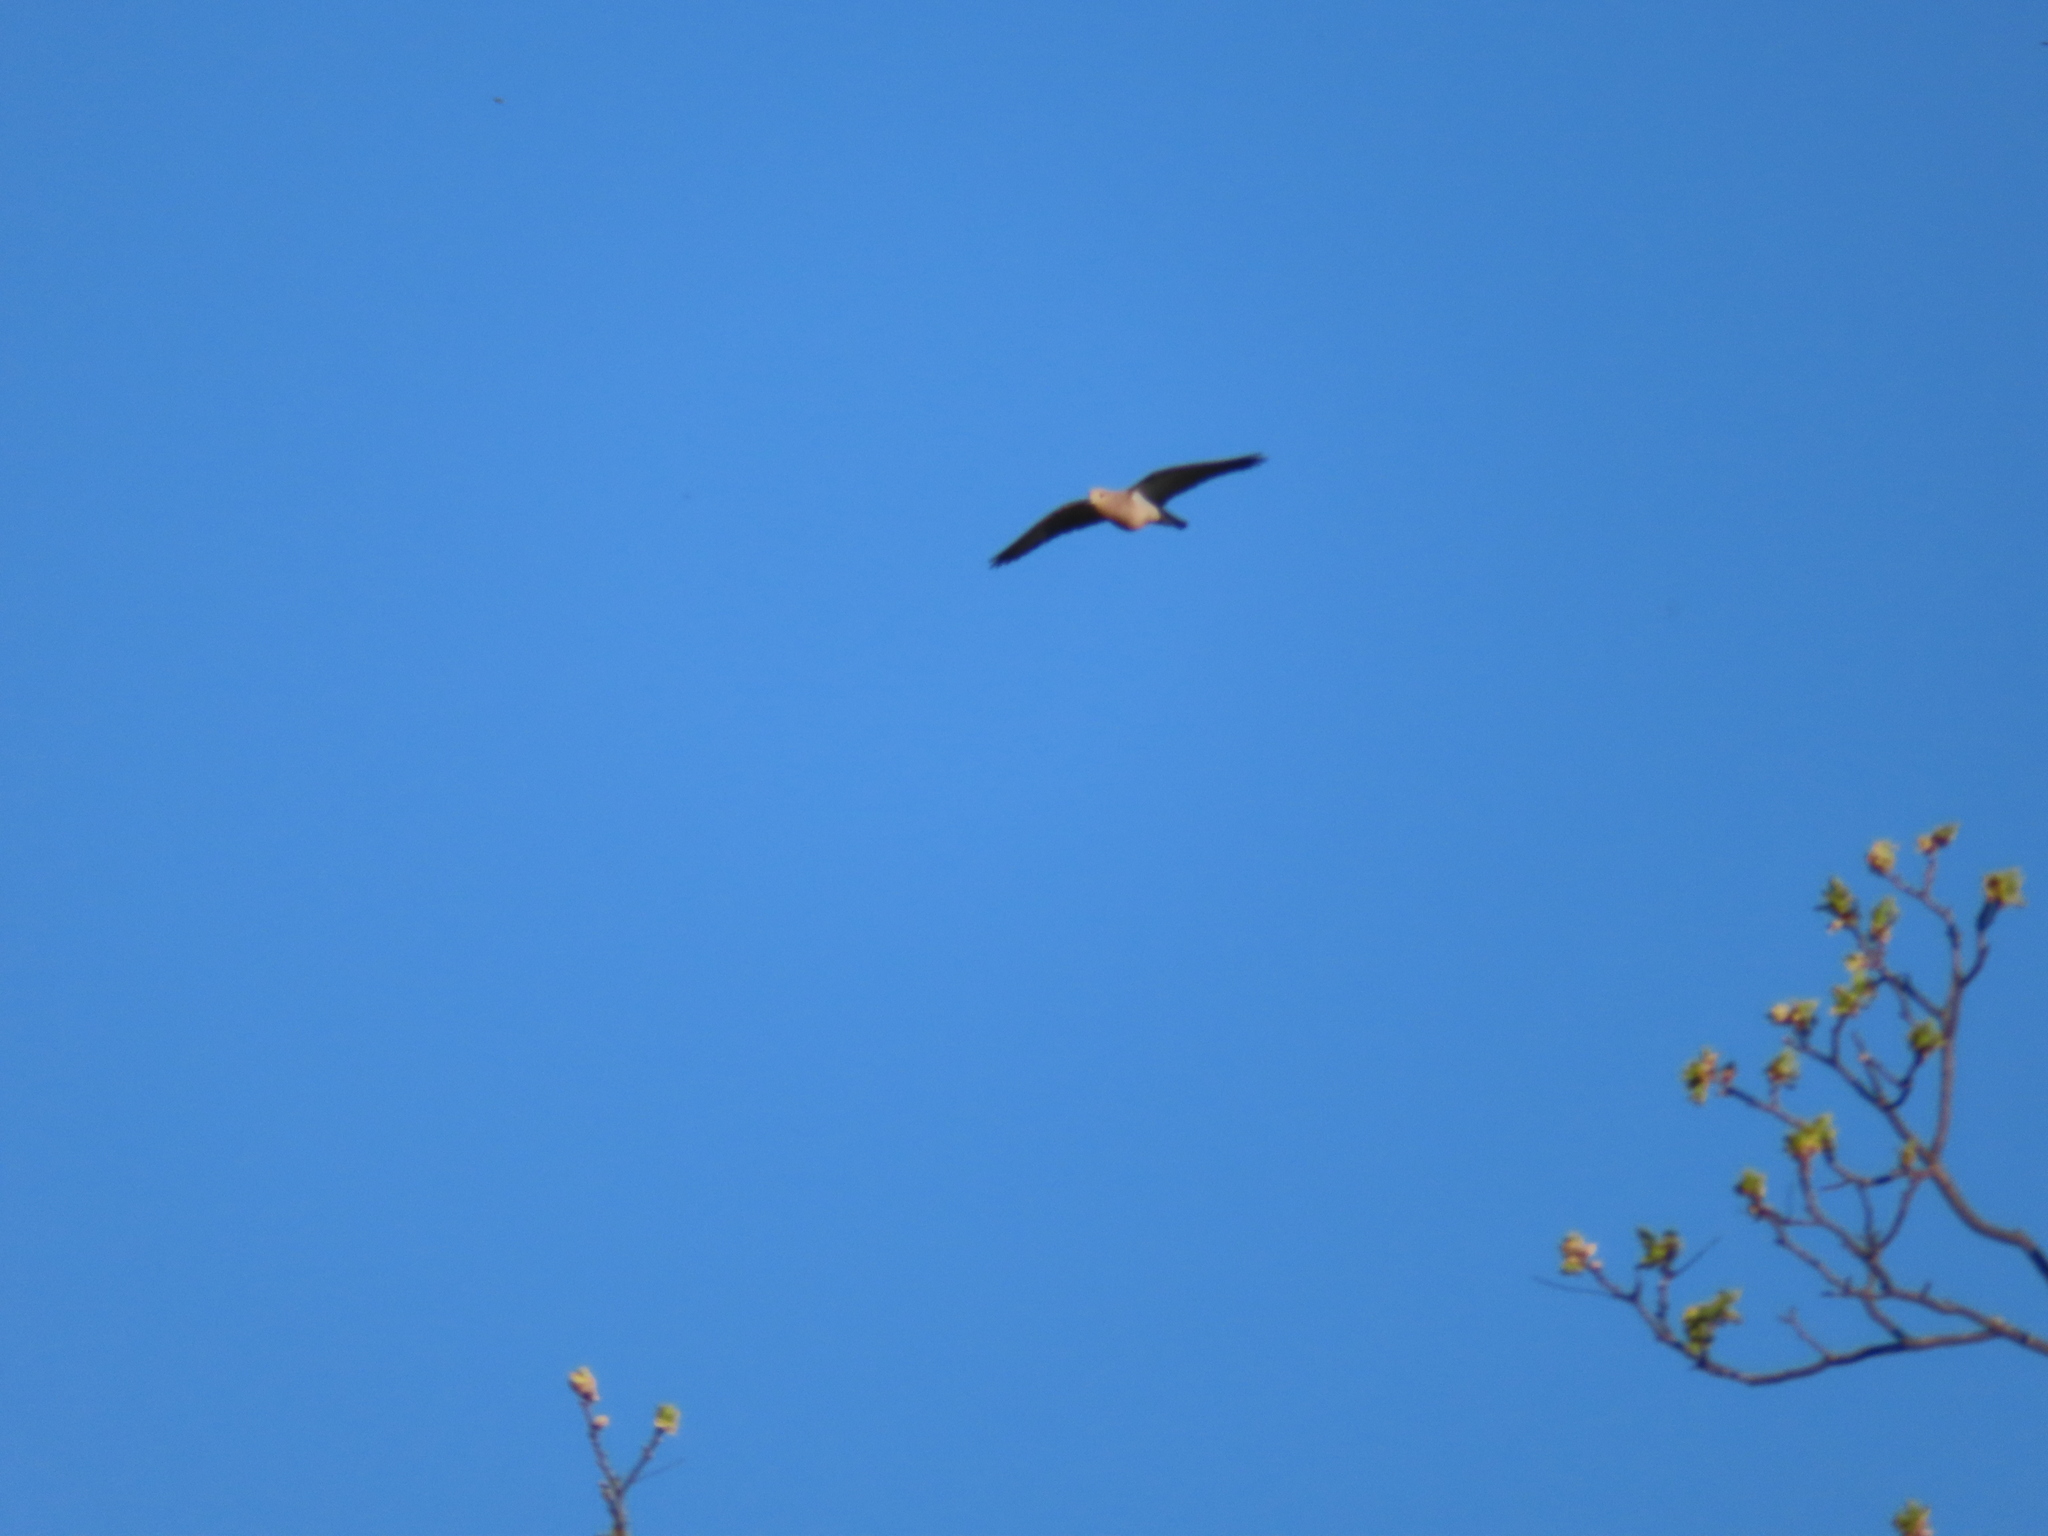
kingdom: Animalia
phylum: Chordata
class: Aves
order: Columbiformes
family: Columbidae
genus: Zenaida
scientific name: Zenaida macroura
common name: Mourning dove
